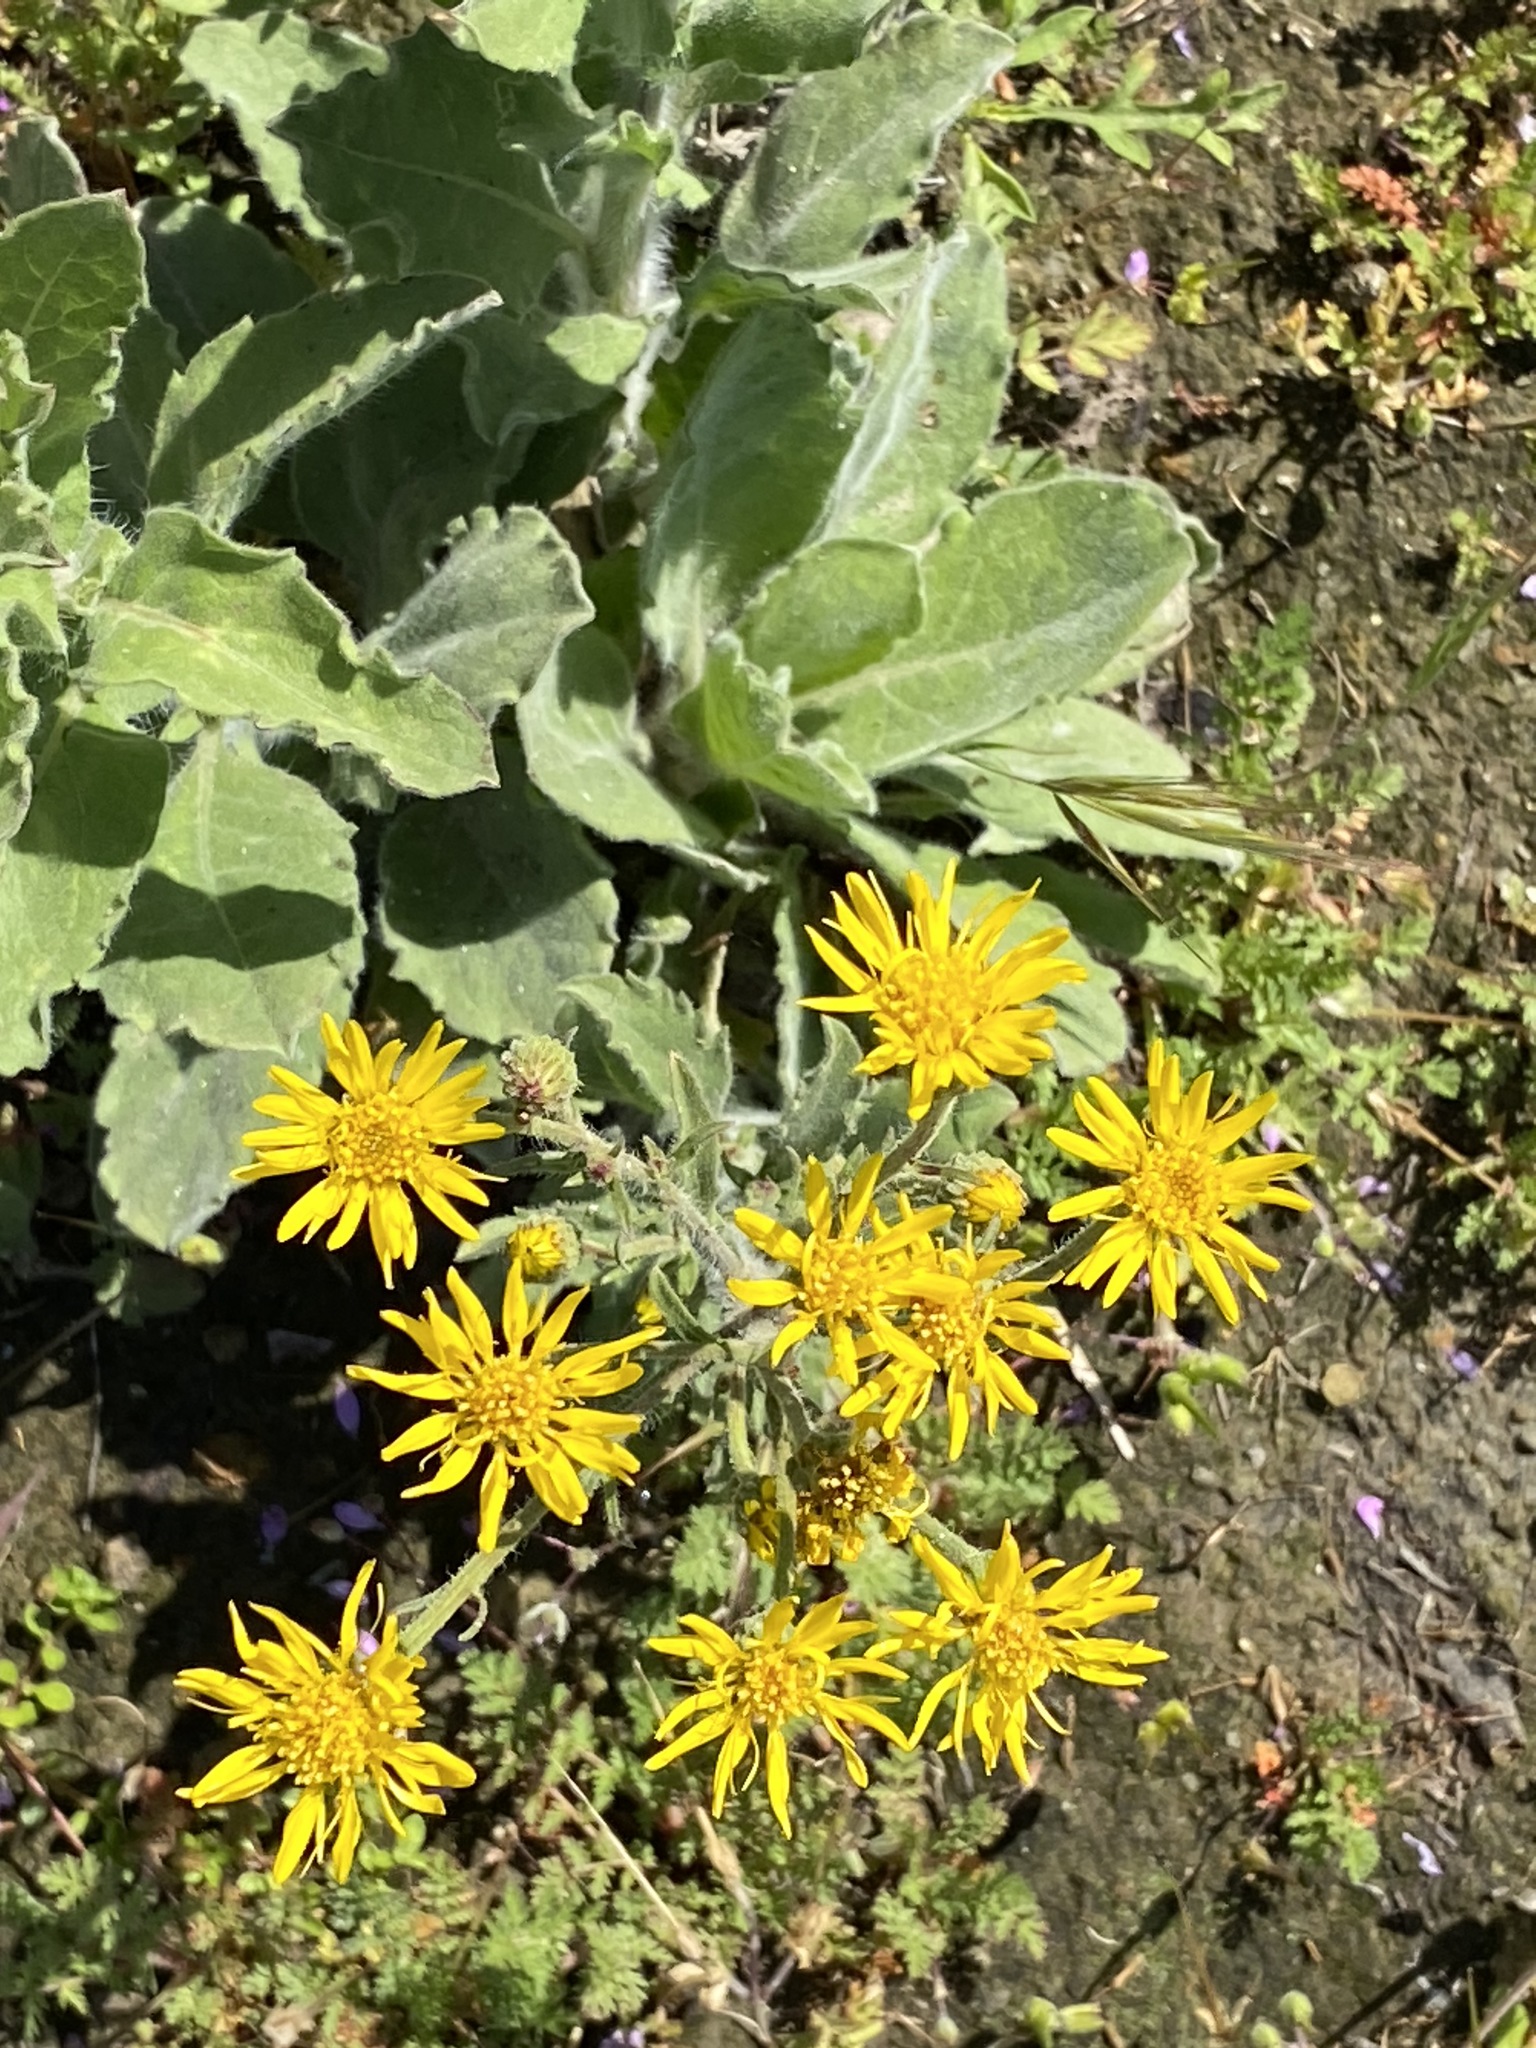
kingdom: Plantae
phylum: Tracheophyta
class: Magnoliopsida
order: Asterales
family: Asteraceae
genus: Heterotheca
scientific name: Heterotheca grandiflora
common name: Telegraphweed
